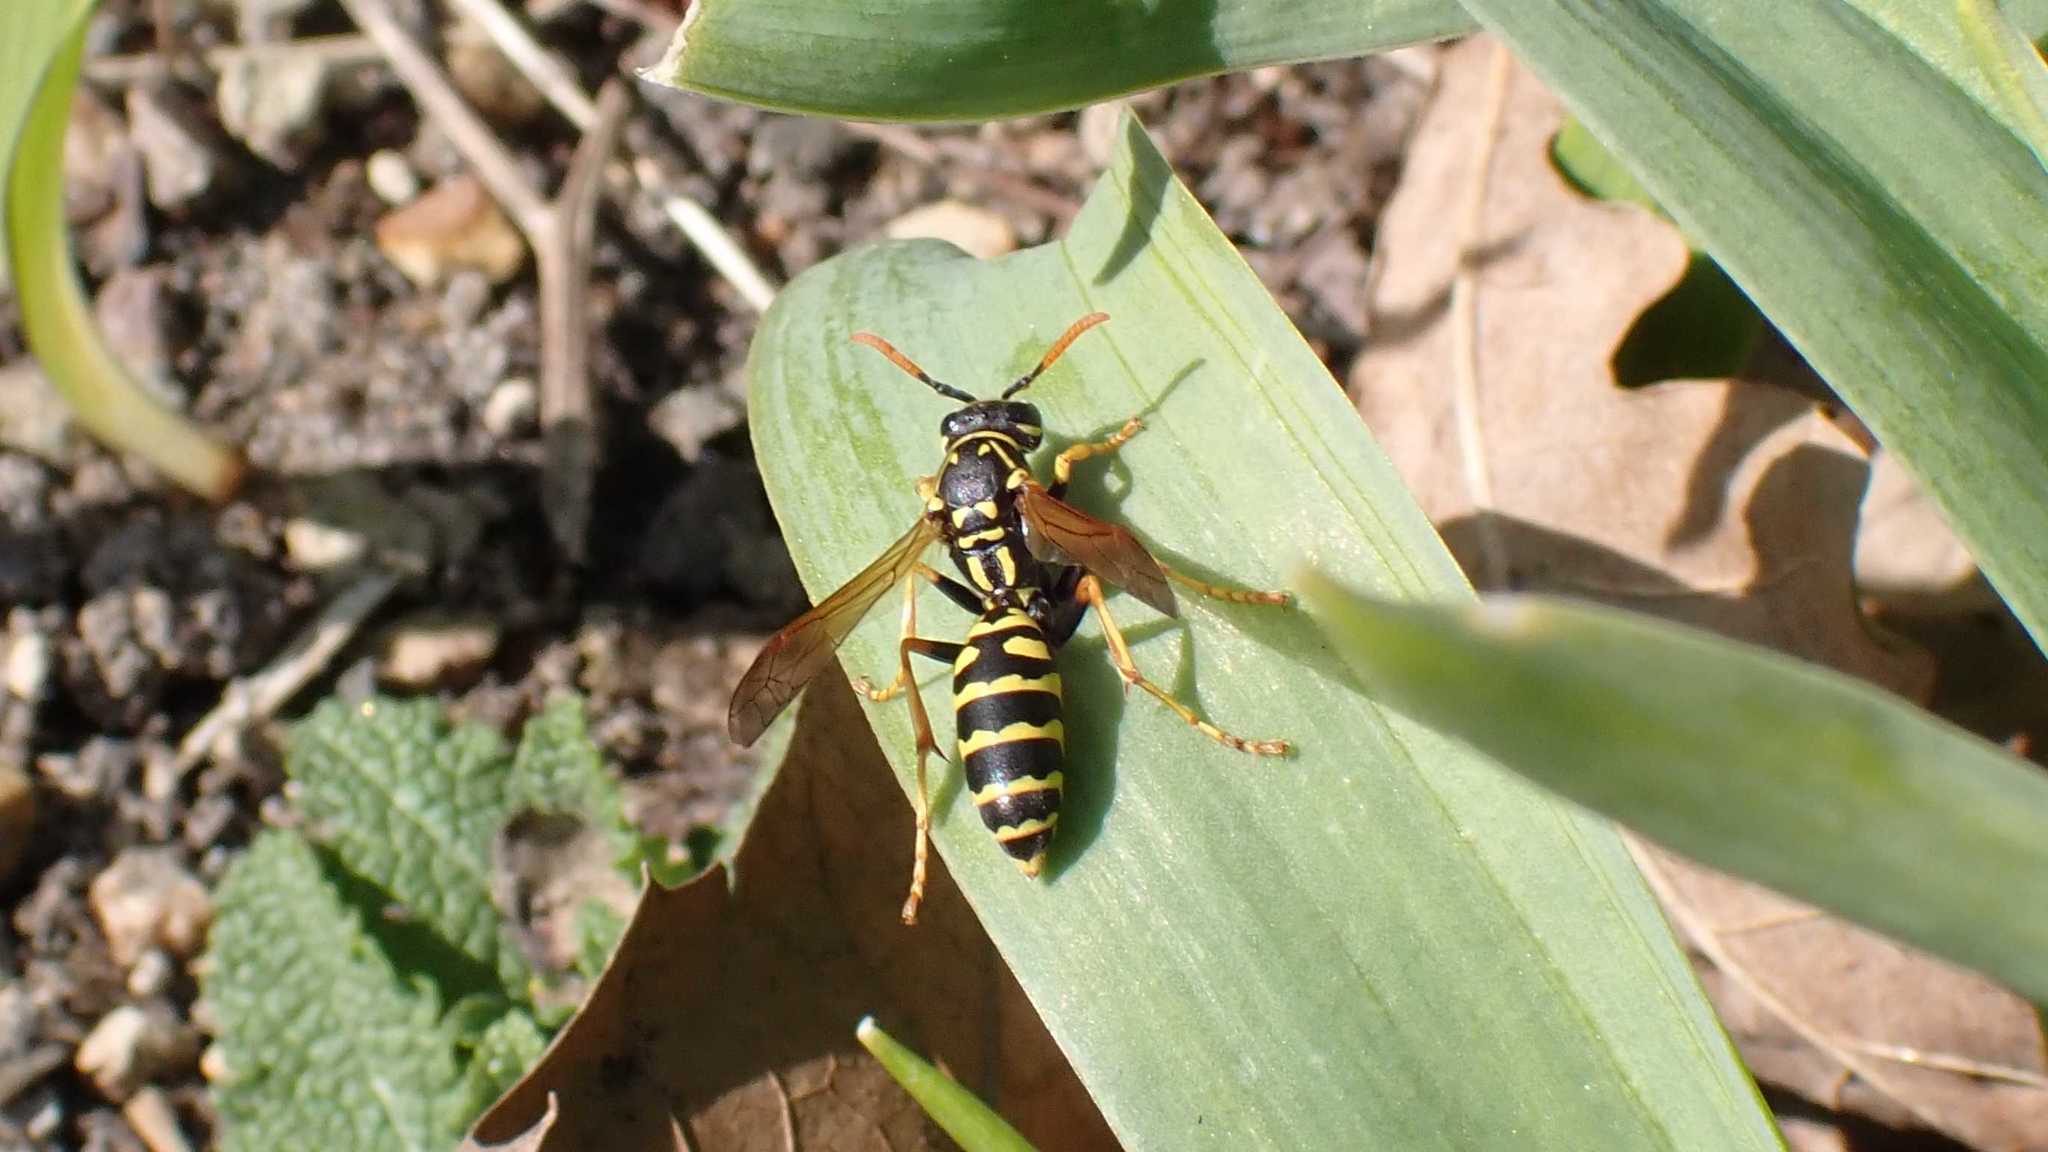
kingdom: Animalia
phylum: Arthropoda
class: Insecta
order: Hymenoptera
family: Eumenidae
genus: Polistes
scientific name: Polistes dominula
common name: Paper wasp
